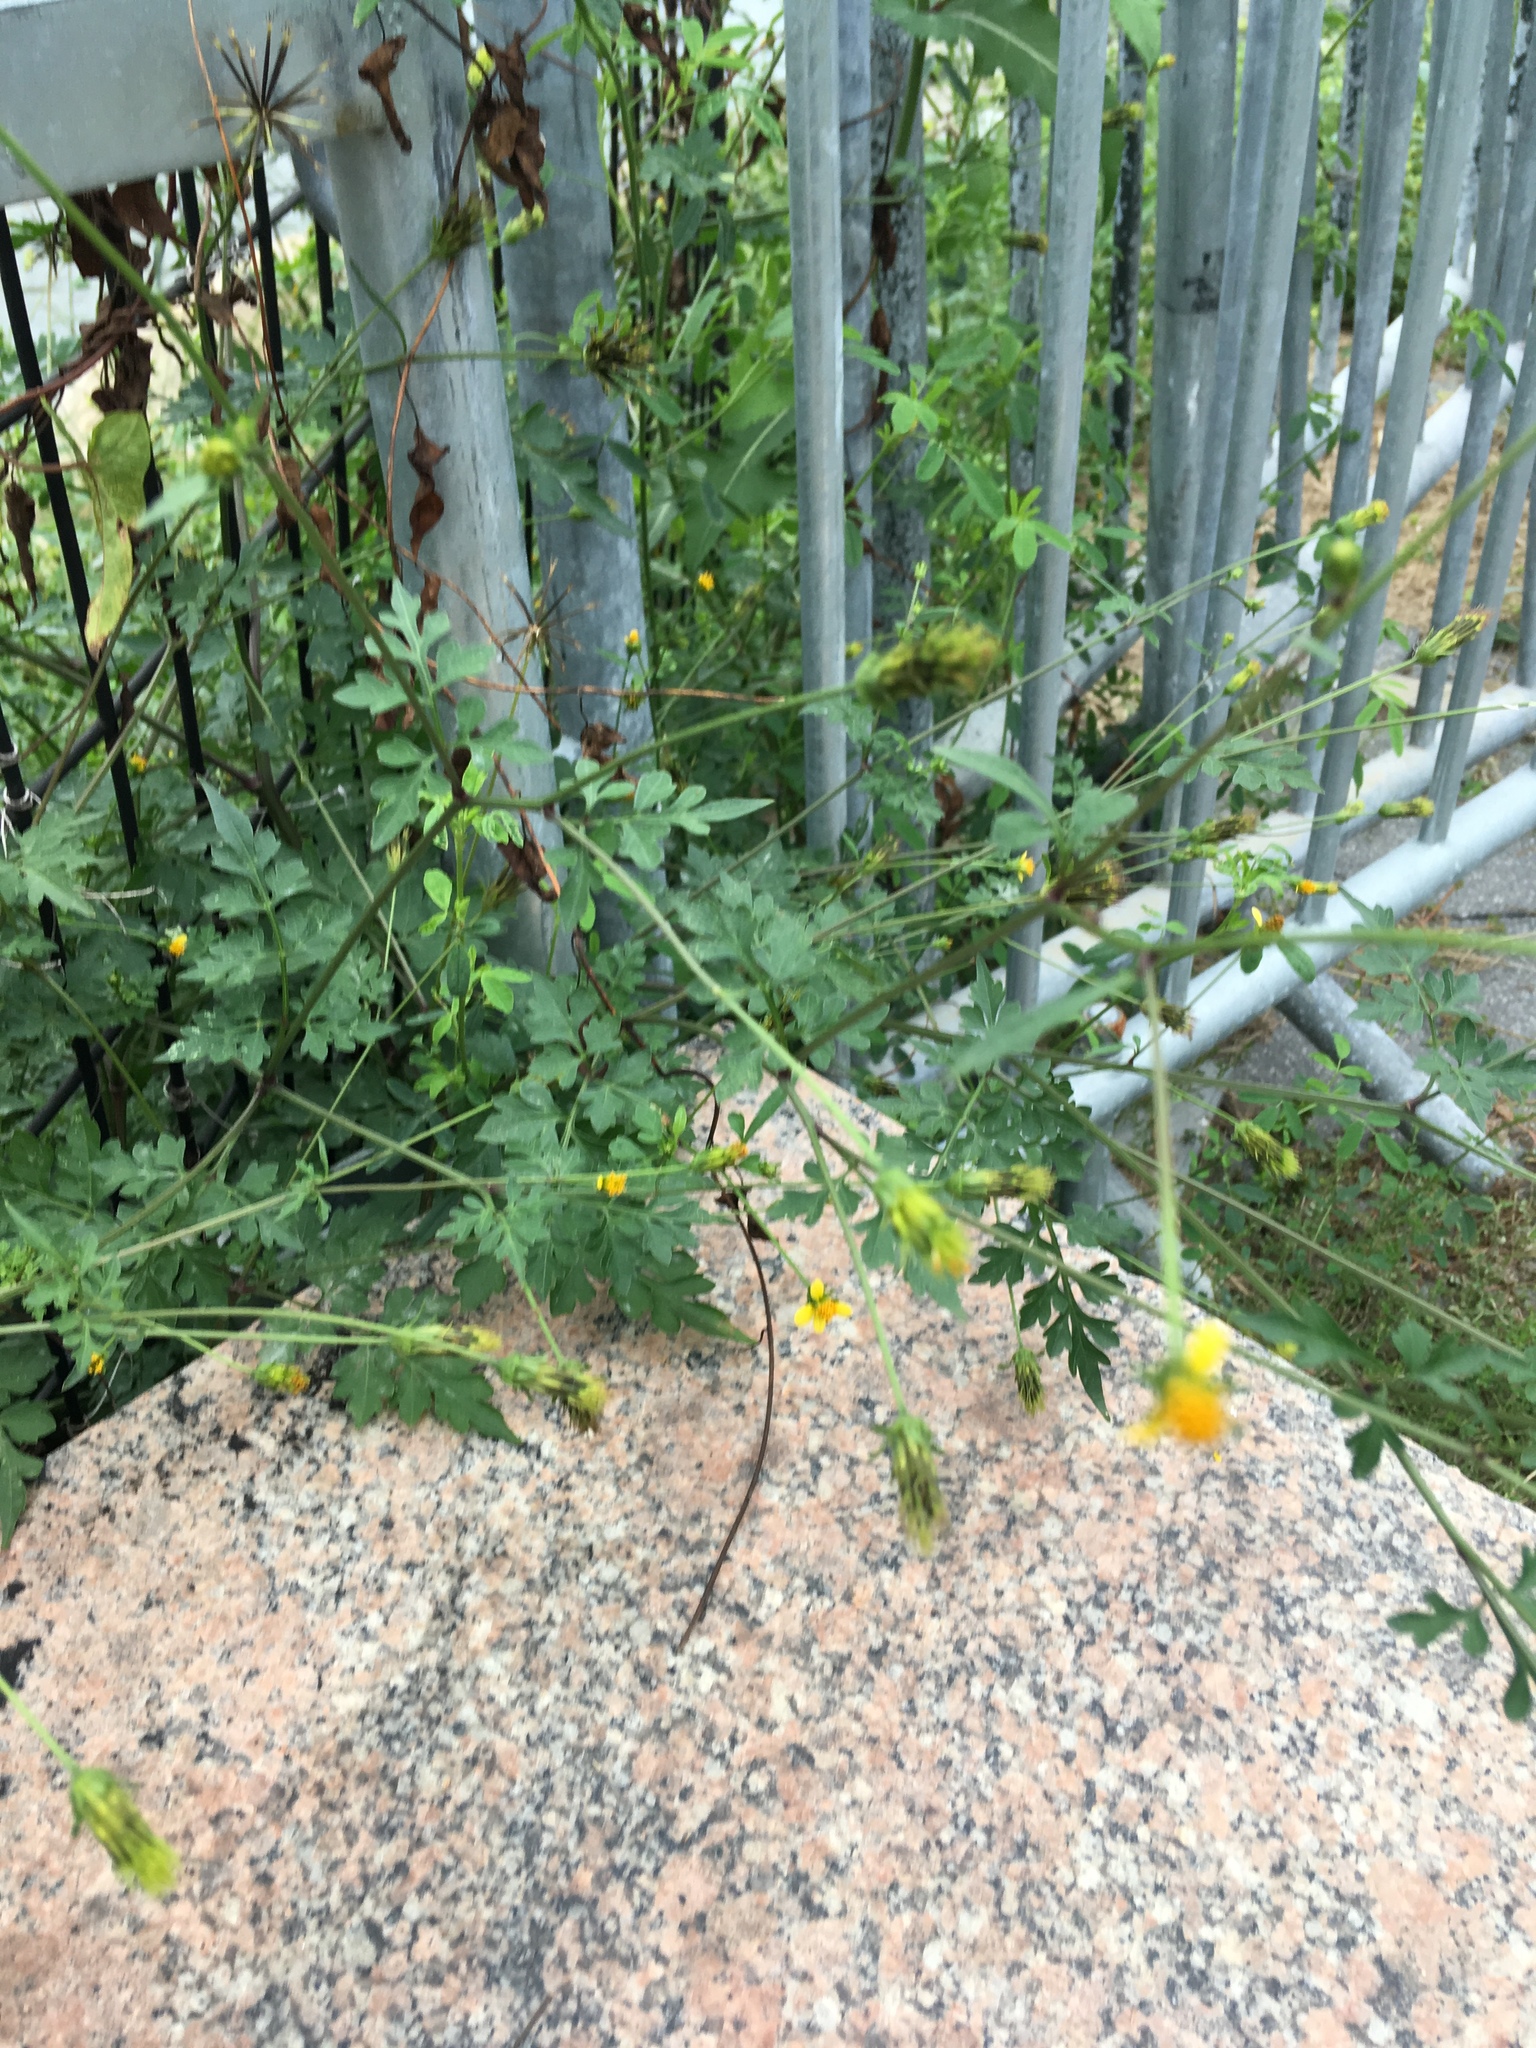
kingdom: Plantae
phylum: Tracheophyta
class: Magnoliopsida
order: Asterales
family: Asteraceae
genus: Bidens
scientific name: Bidens bipinnata
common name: Spanish-needles
